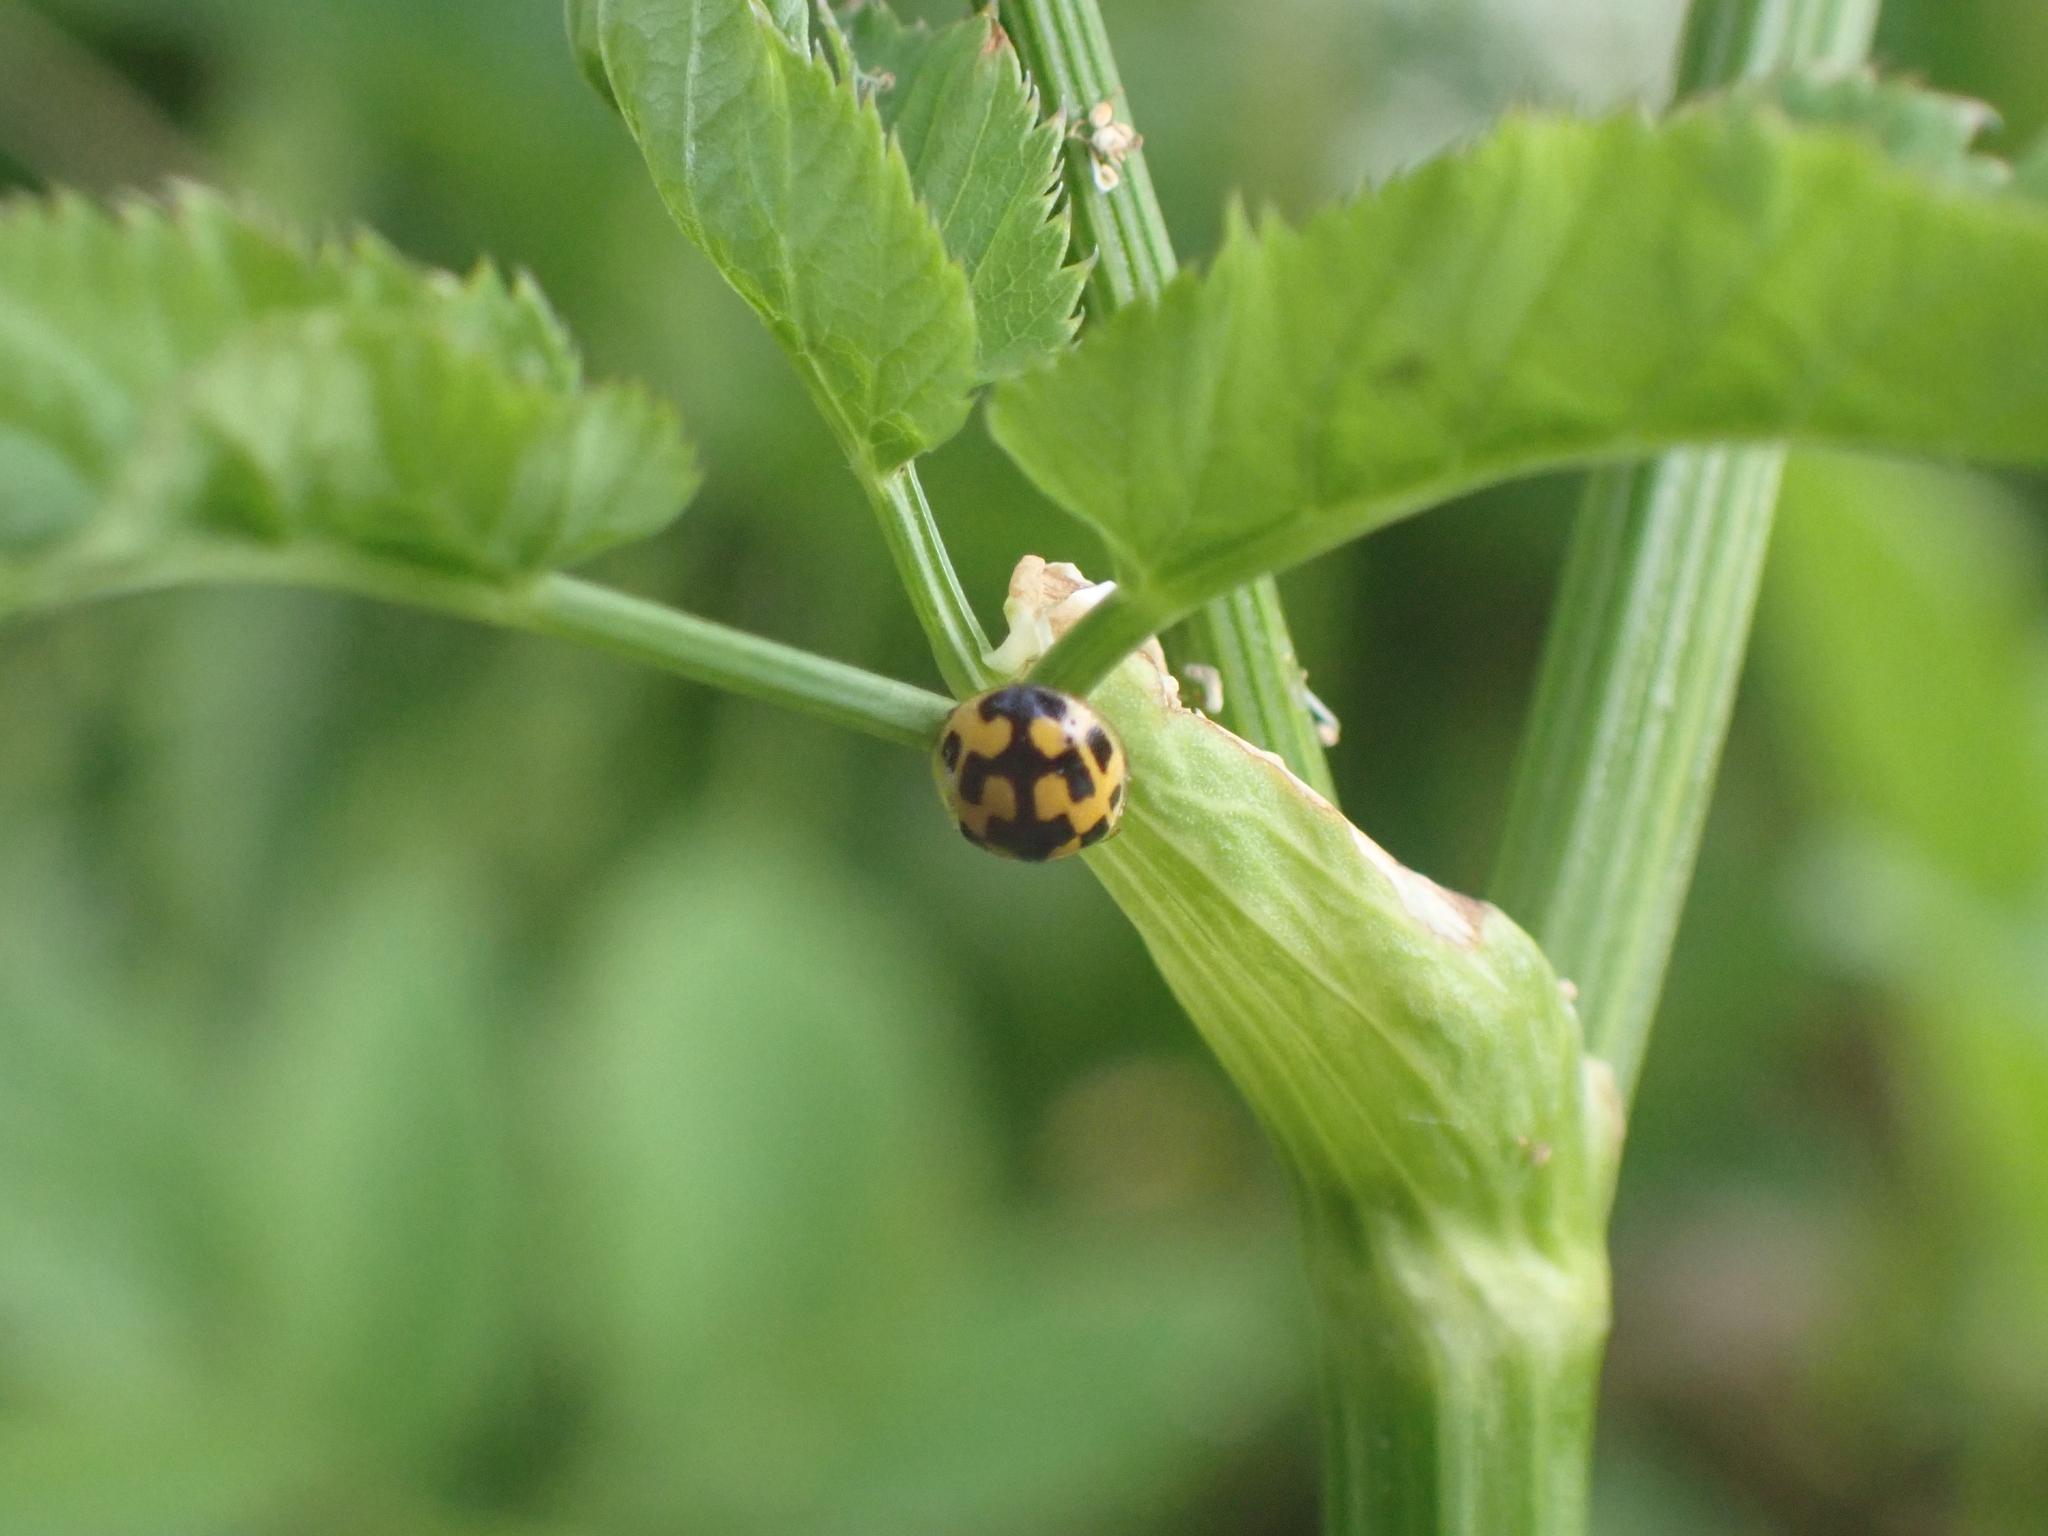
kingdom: Animalia
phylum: Arthropoda
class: Insecta
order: Coleoptera
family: Coccinellidae
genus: Propylaea
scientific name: Propylaea quatuordecimpunctata
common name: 14-spotted ladybird beetle
